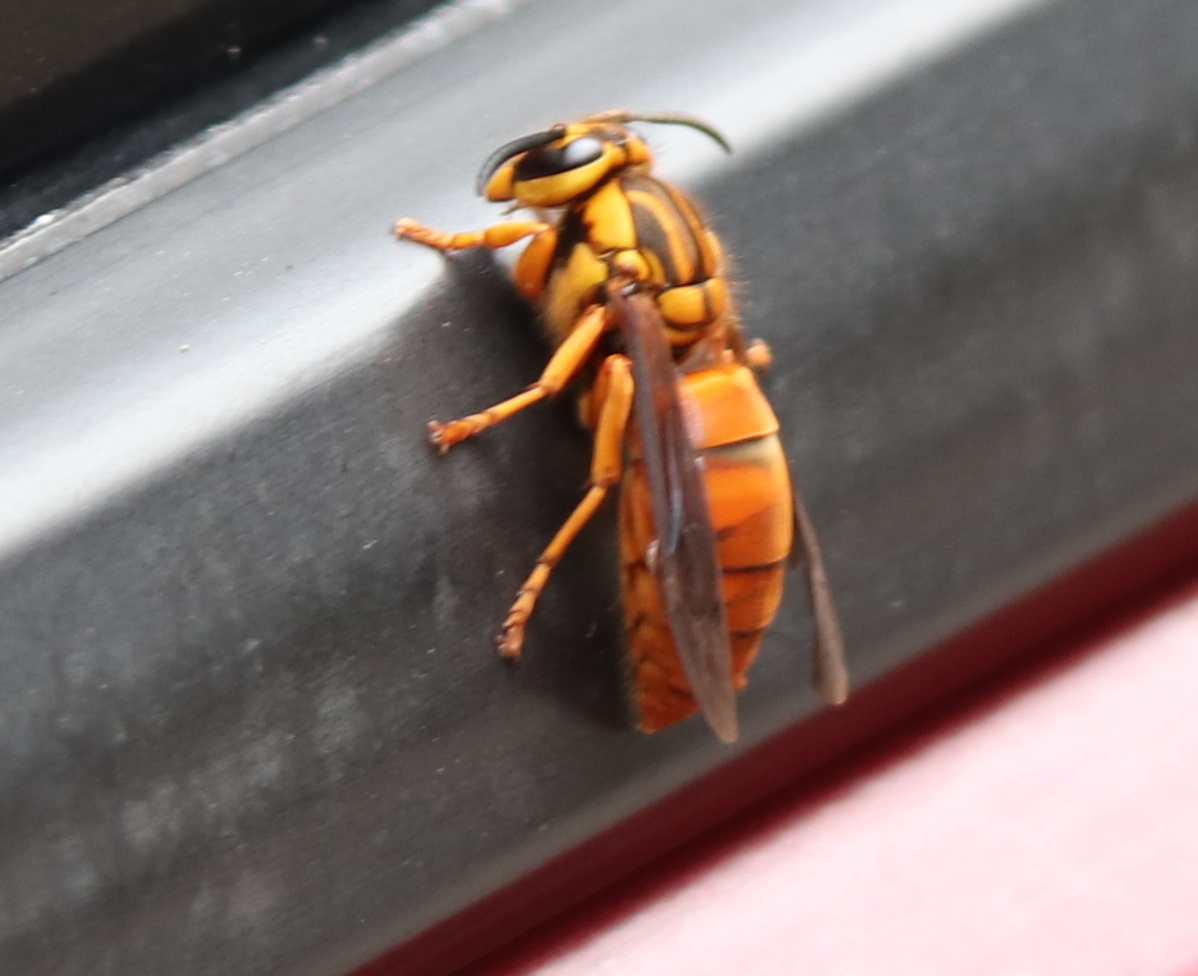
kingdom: Animalia
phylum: Arthropoda
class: Insecta
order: Hymenoptera
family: Vespidae
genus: Vespula
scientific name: Vespula squamosa
